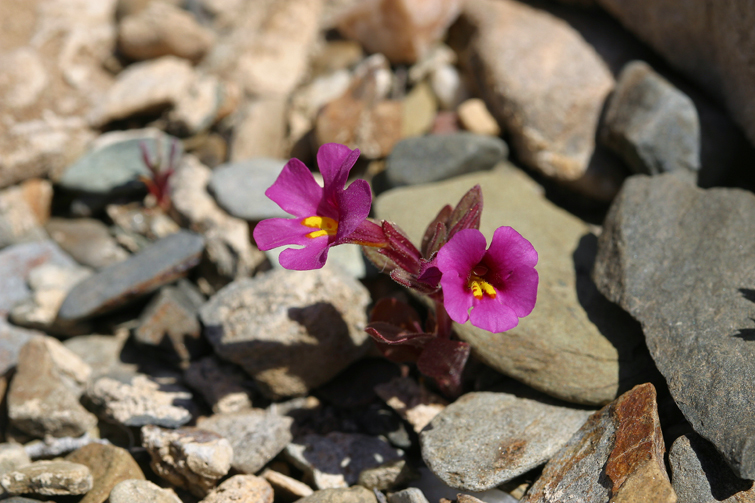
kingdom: Plantae
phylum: Tracheophyta
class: Magnoliopsida
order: Lamiales
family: Phrymaceae
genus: Diplacus
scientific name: Diplacus parryi
